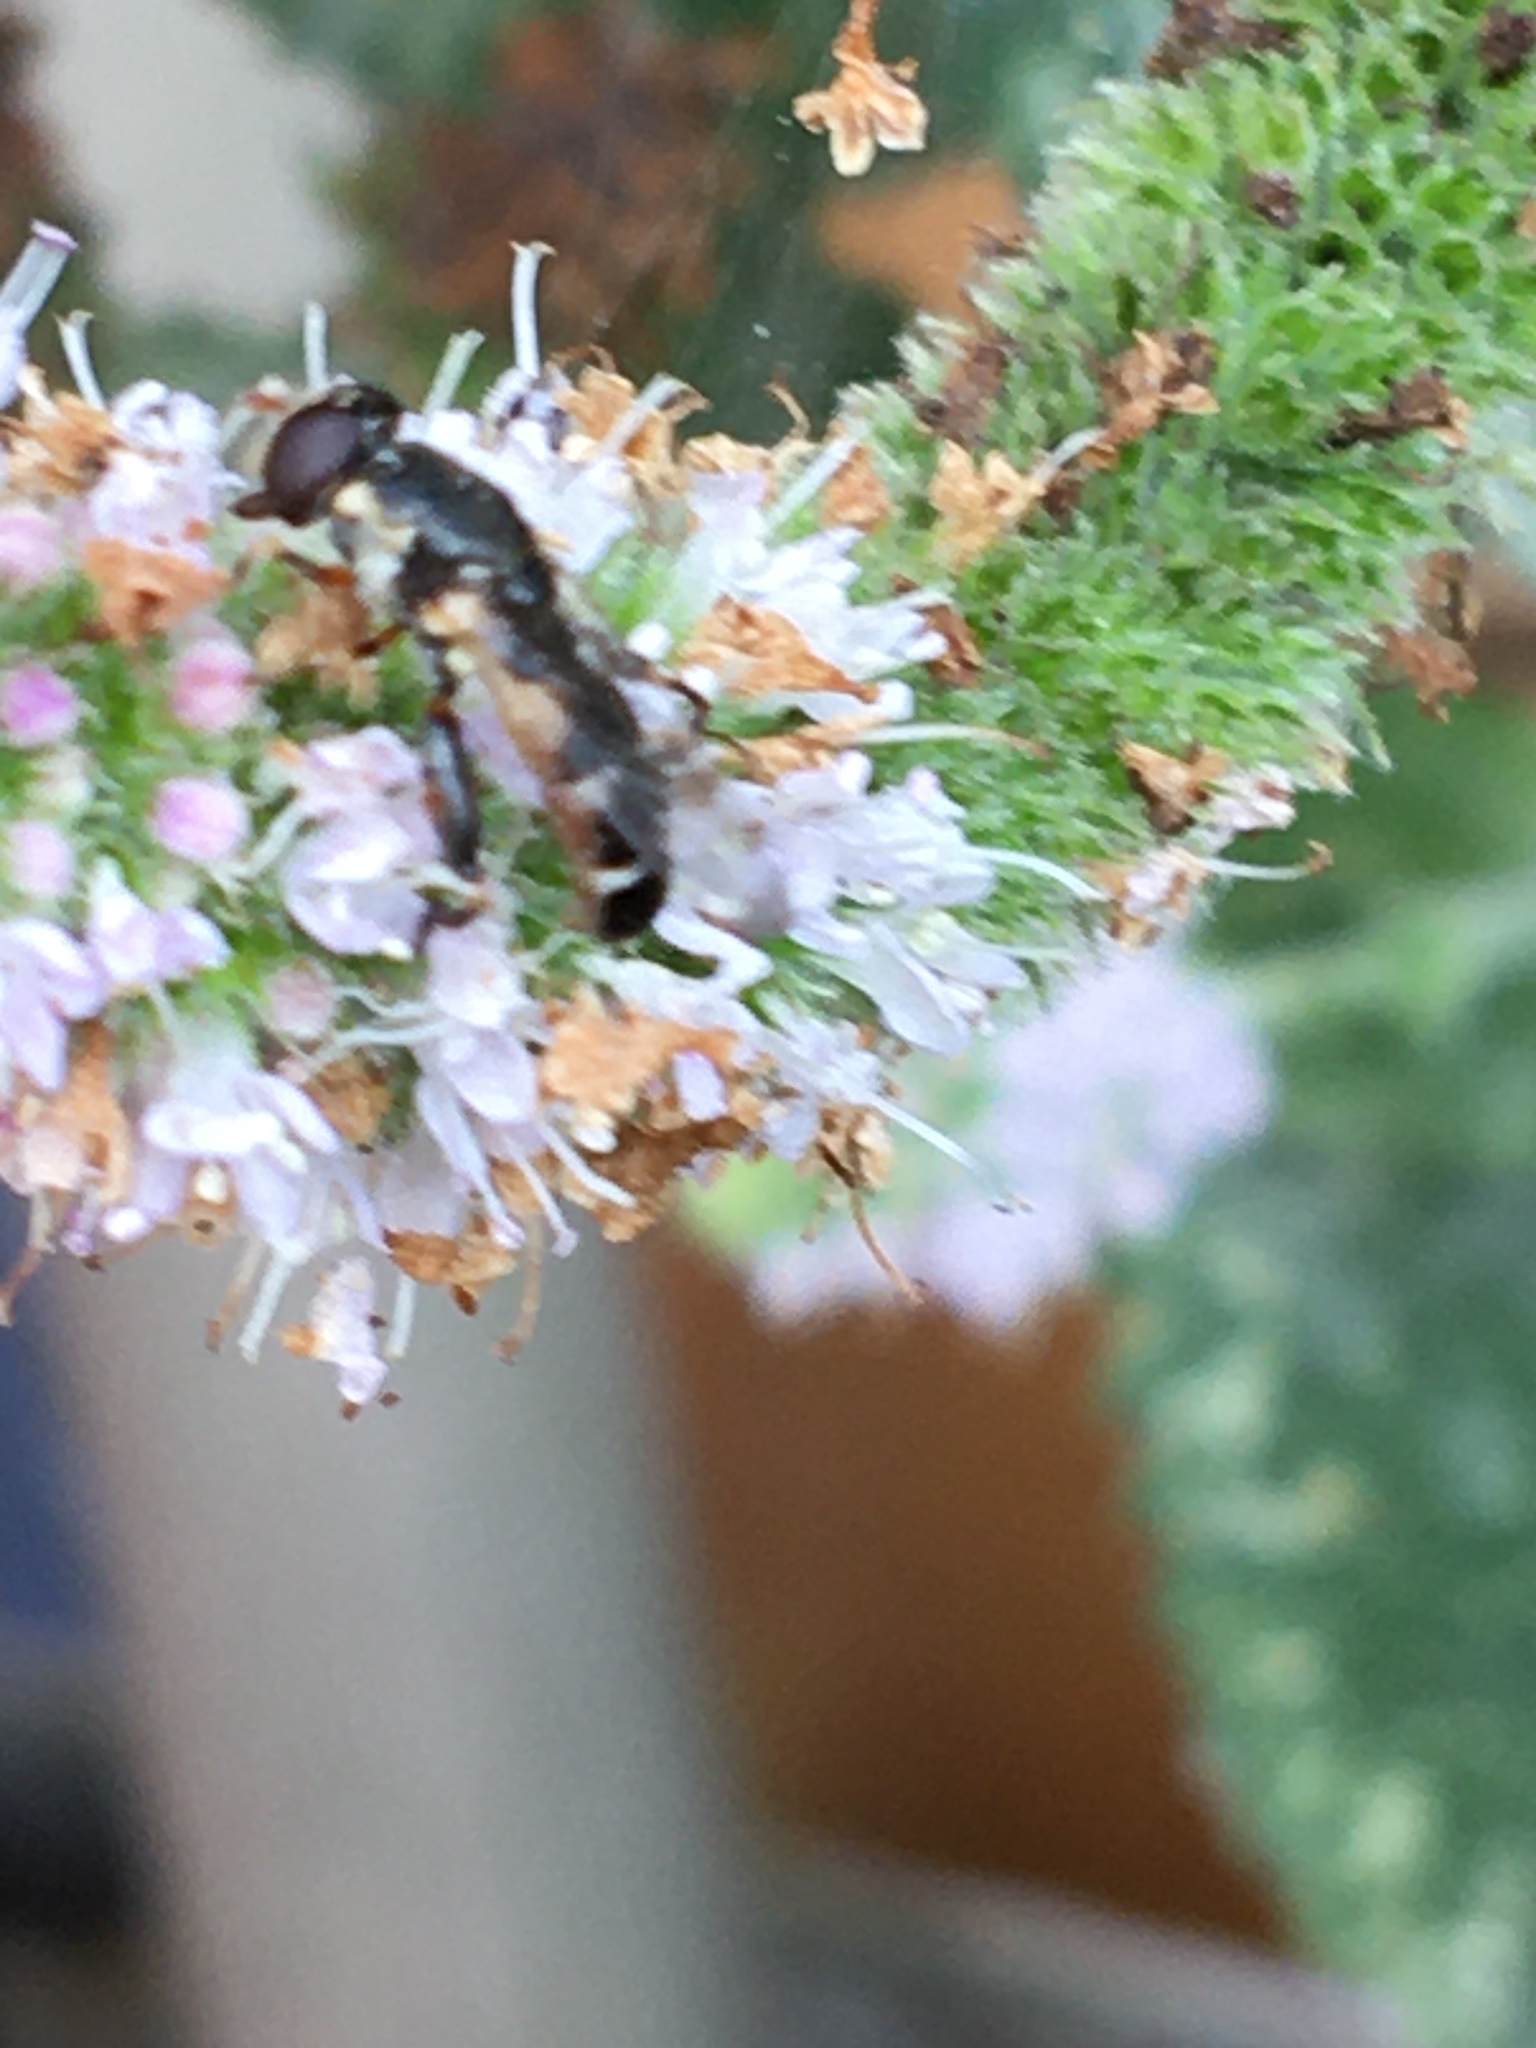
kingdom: Animalia
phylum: Arthropoda
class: Insecta
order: Diptera
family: Syrphidae
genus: Syritta
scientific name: Syritta pipiens
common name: Hover fly
